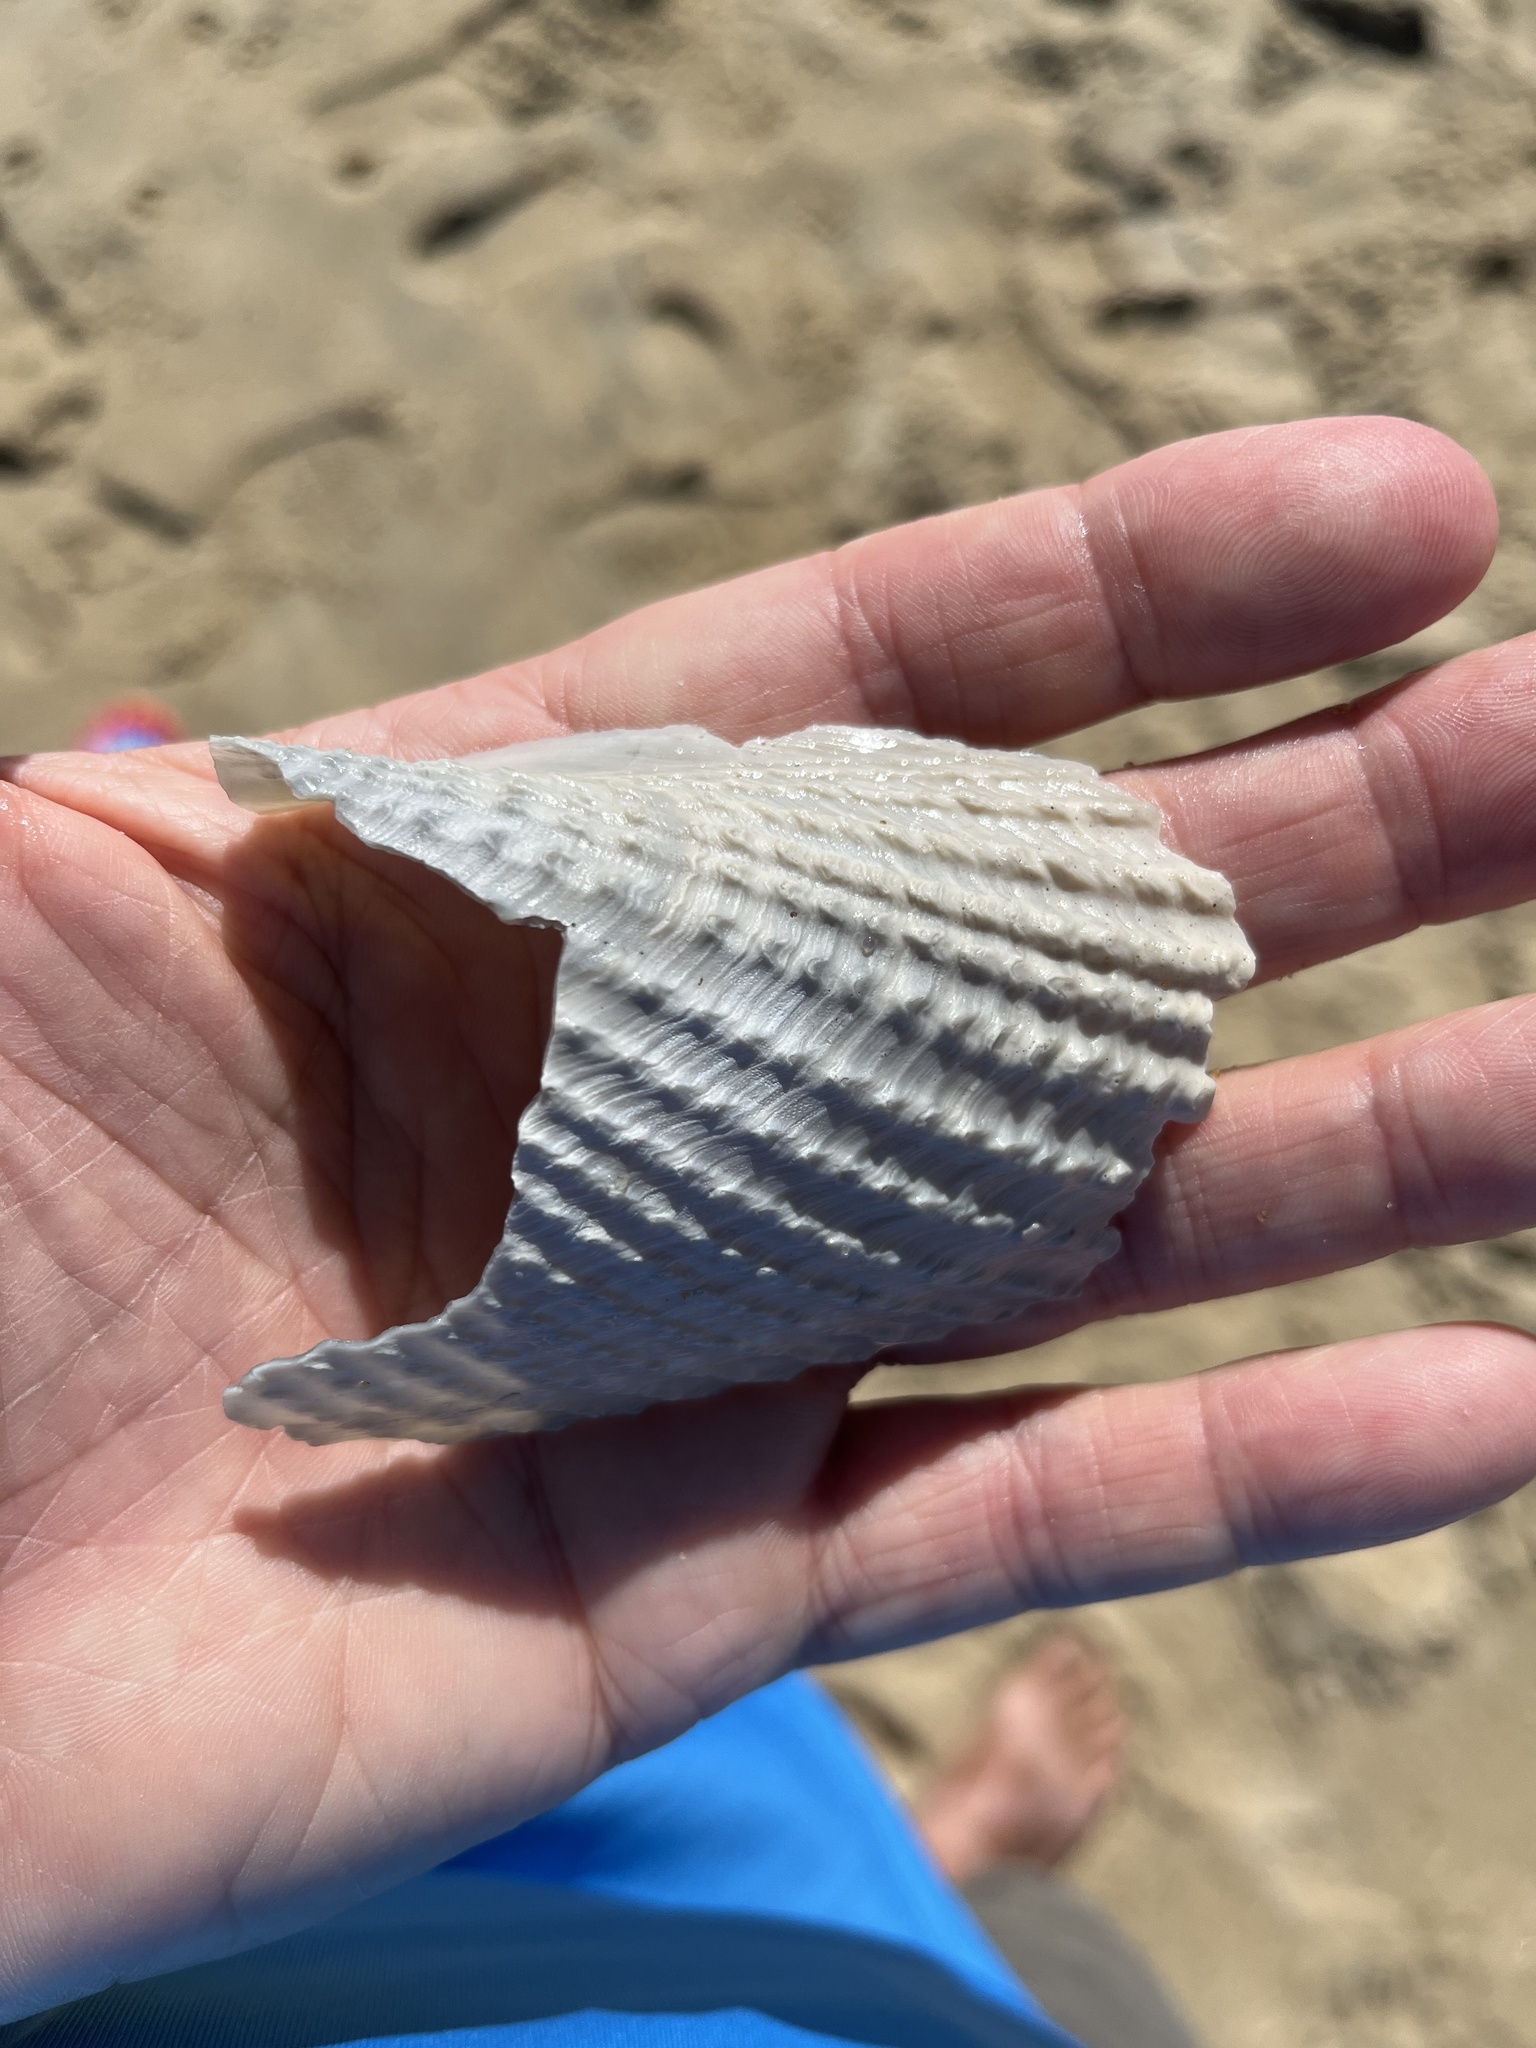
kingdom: Animalia
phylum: Mollusca
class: Bivalvia
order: Myida
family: Pholadidae
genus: Cyrtopleura
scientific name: Cyrtopleura costata
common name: Angel wing
